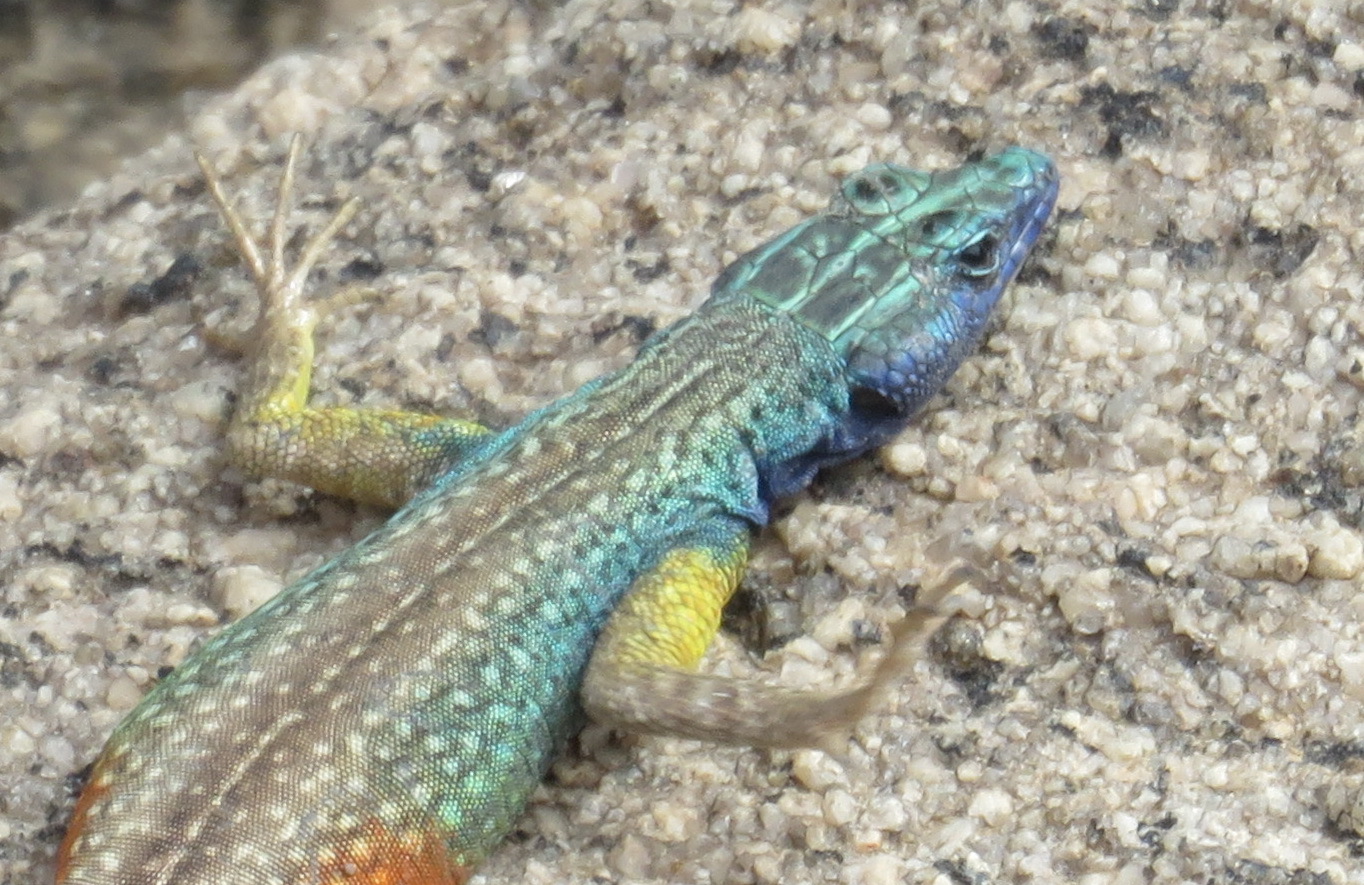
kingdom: Animalia
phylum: Chordata
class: Squamata
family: Cordylidae
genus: Platysaurus
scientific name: Platysaurus broadleyi
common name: Augrabies flat lizard
